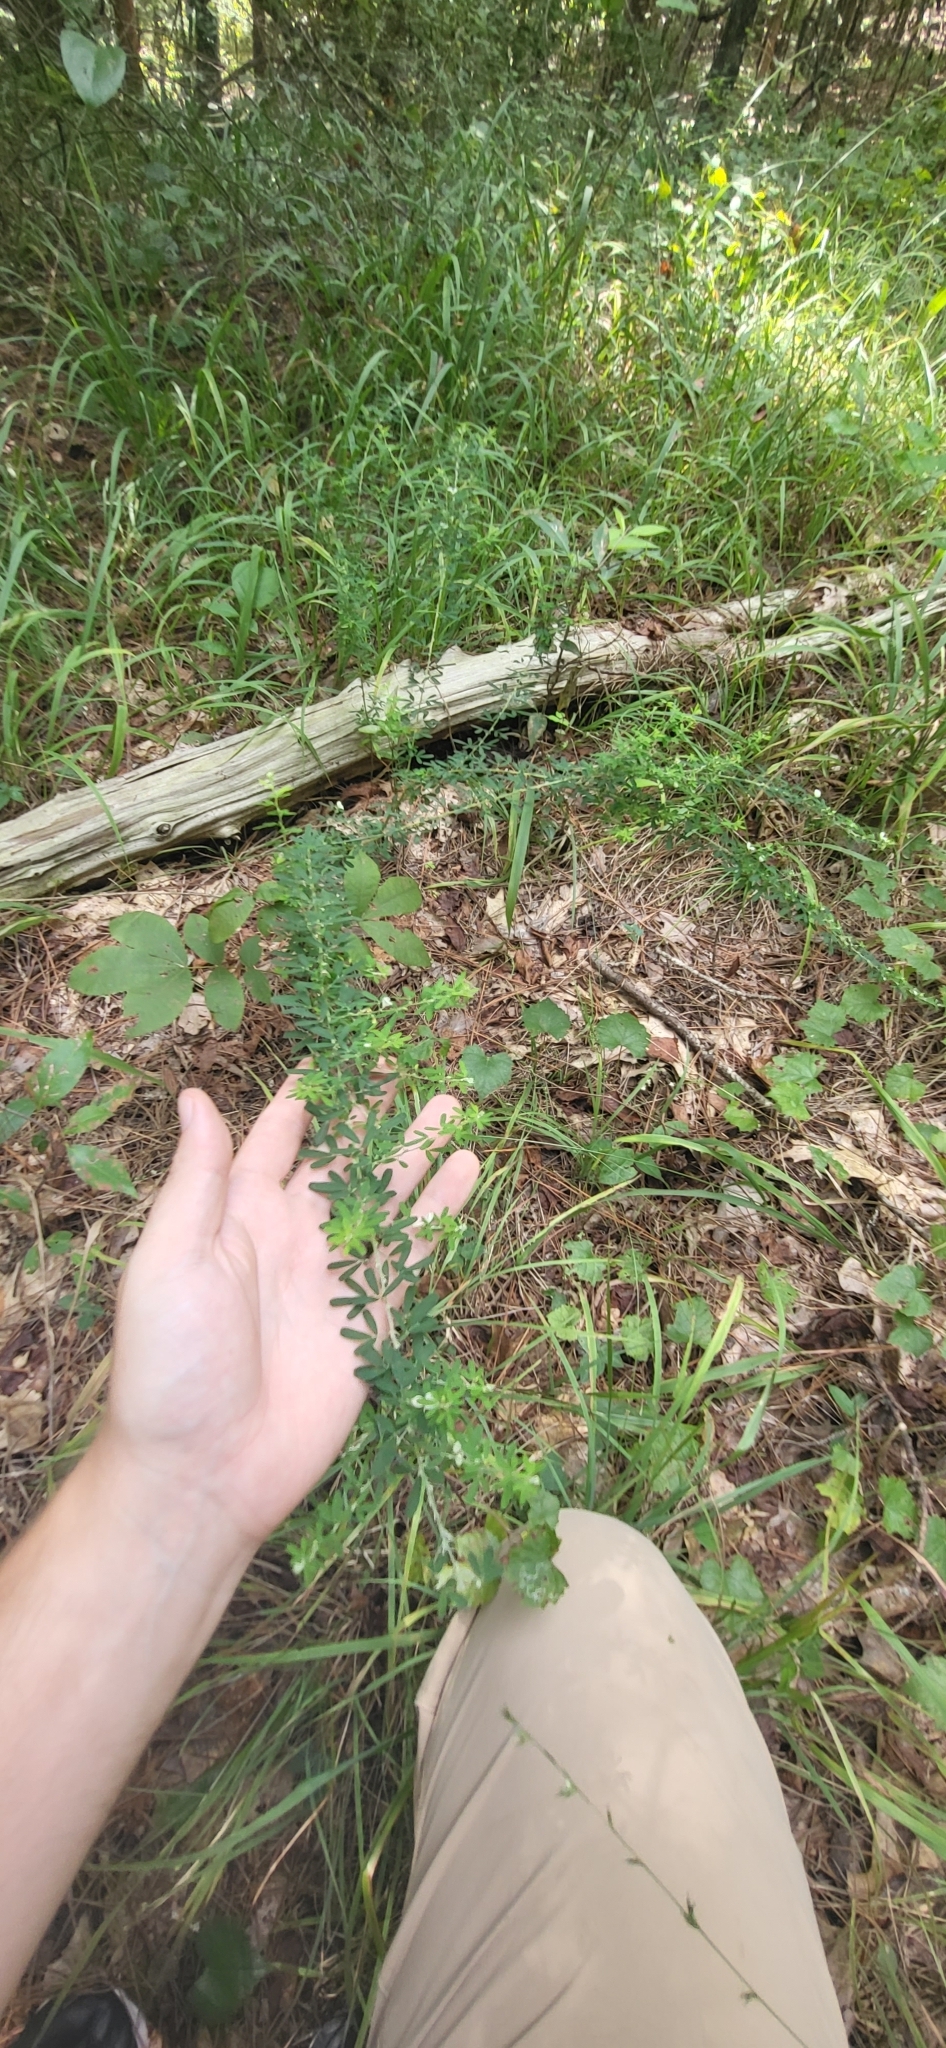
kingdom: Plantae
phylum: Tracheophyta
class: Magnoliopsida
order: Fabales
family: Fabaceae
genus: Lespedeza
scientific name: Lespedeza cuneata
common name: Chinese bush-clover
